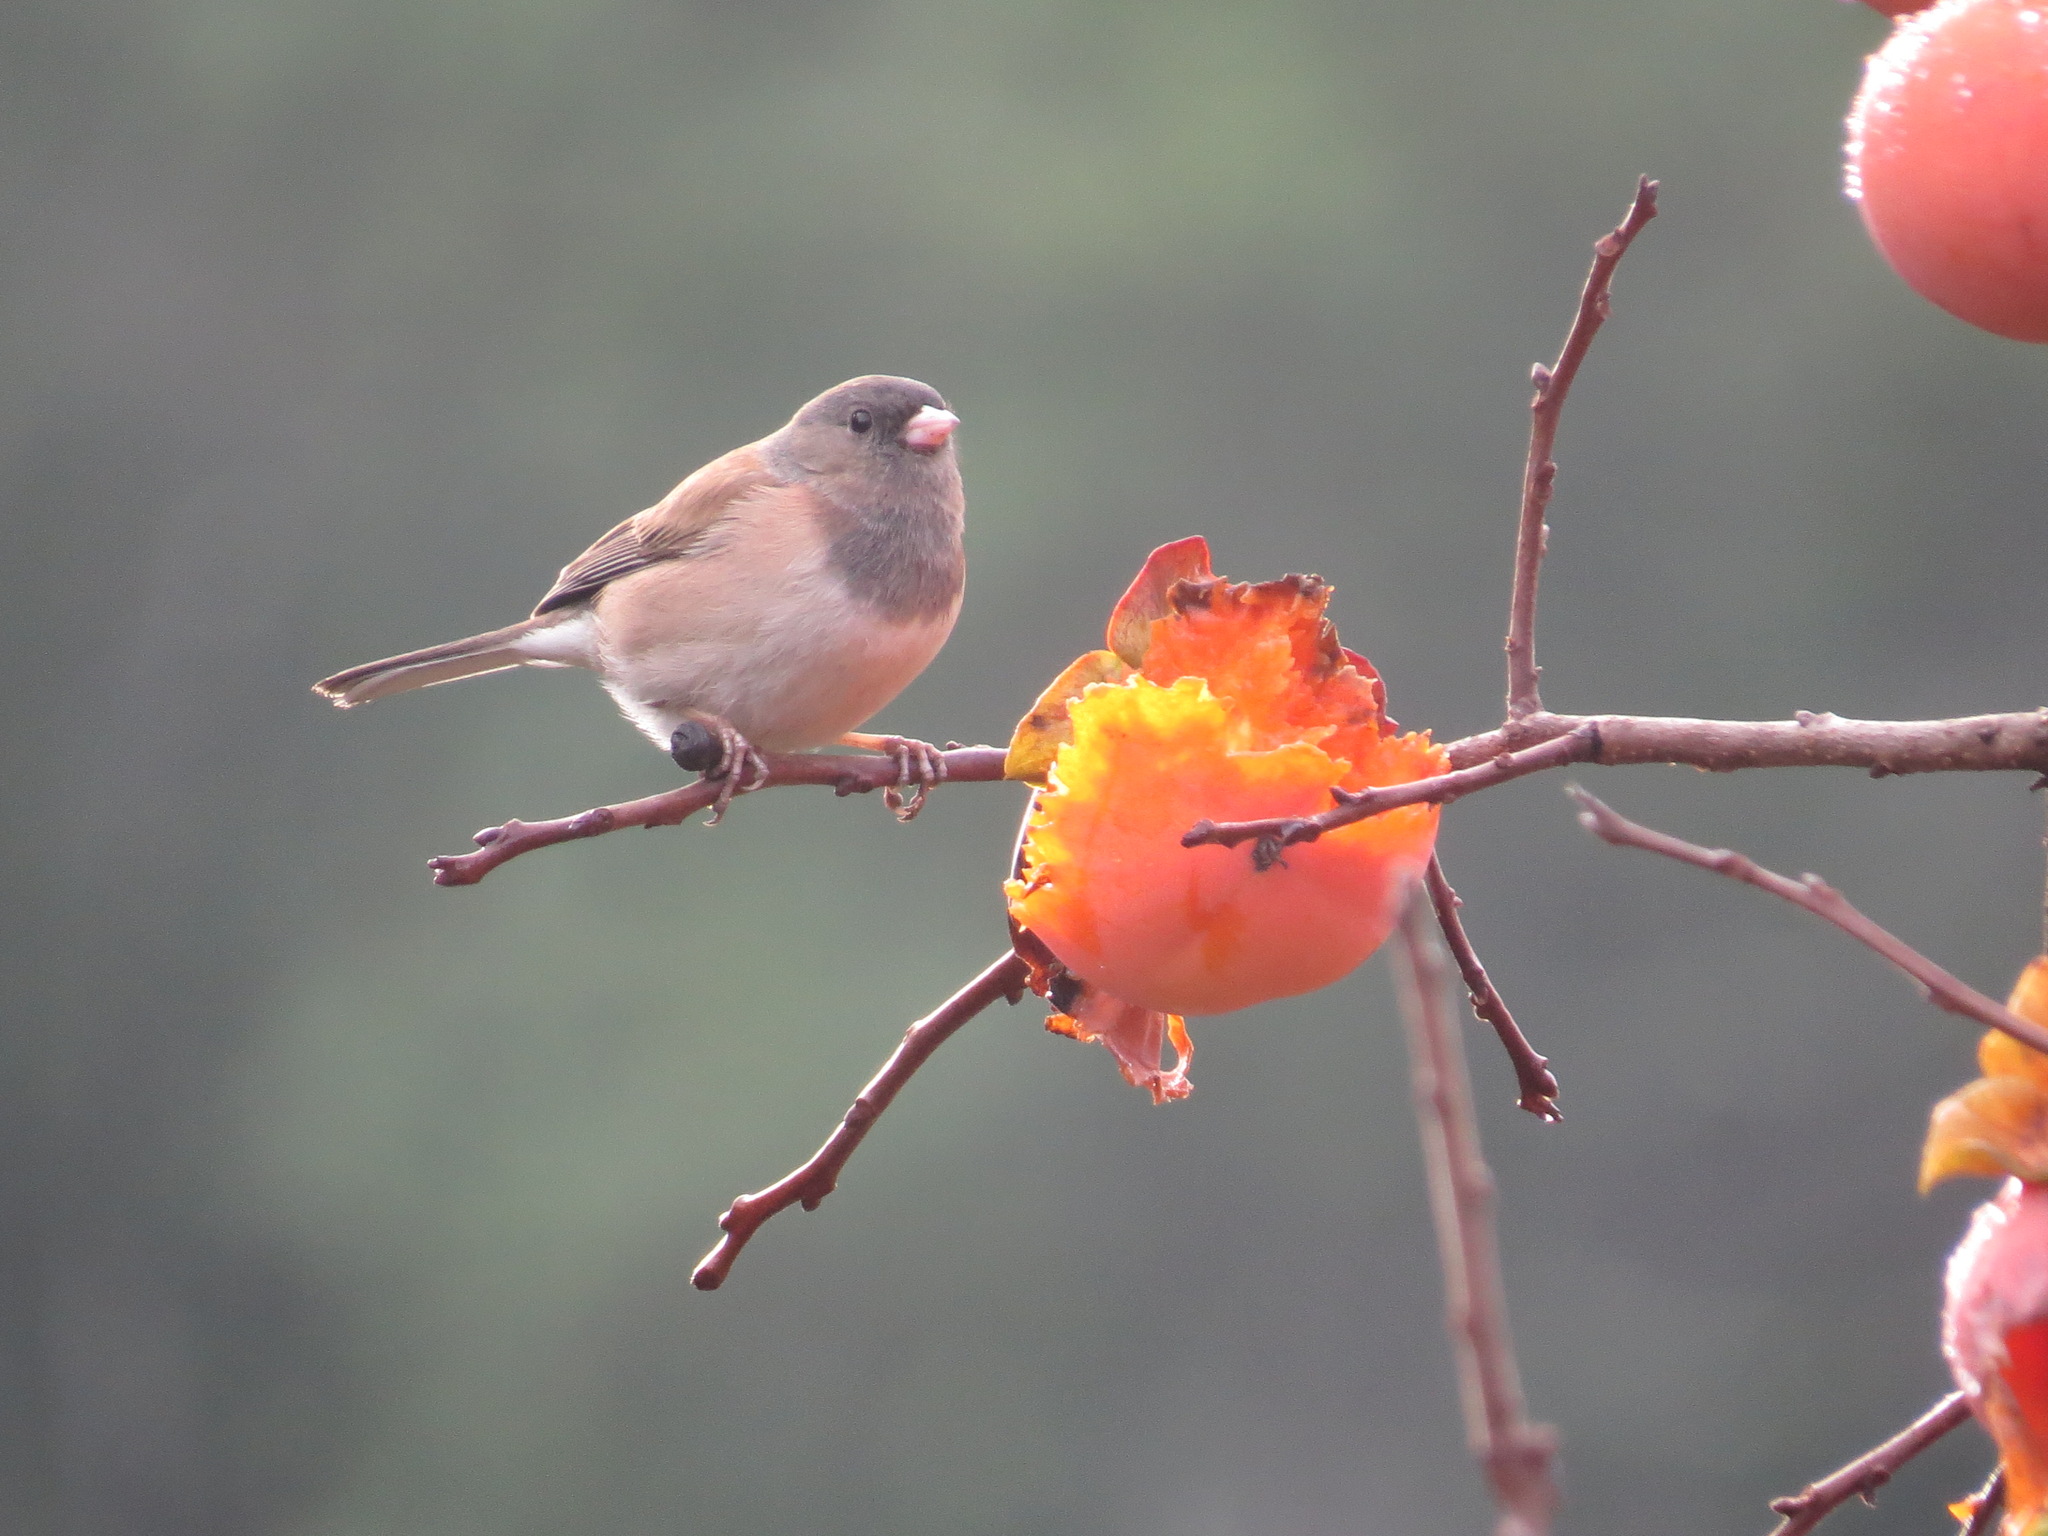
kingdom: Animalia
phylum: Chordata
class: Aves
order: Passeriformes
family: Passerellidae
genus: Junco
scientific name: Junco hyemalis
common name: Dark-eyed junco
